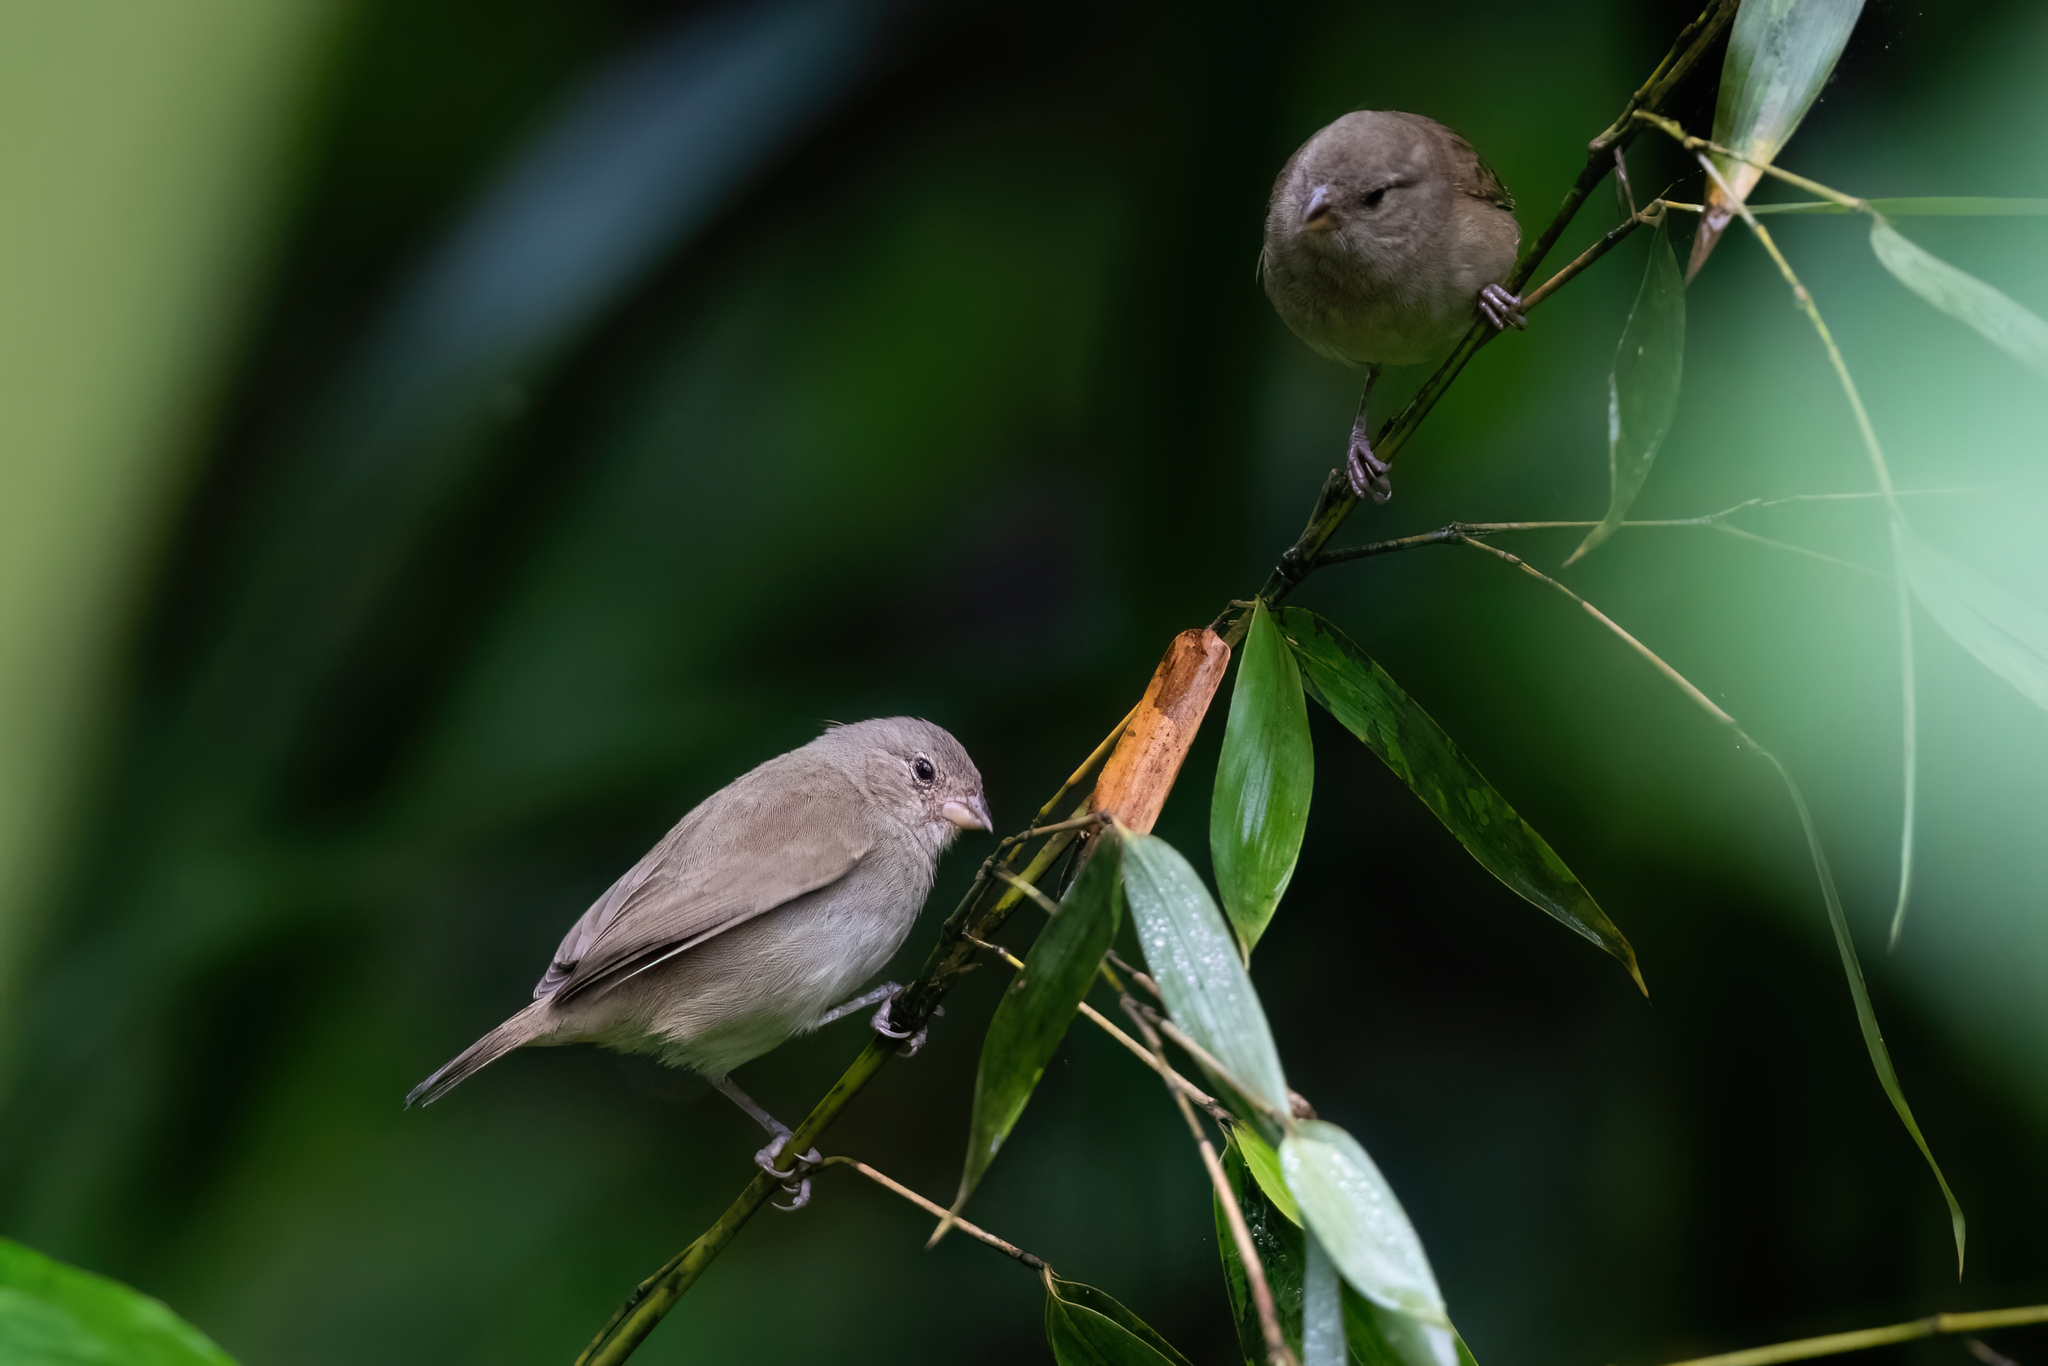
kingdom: Animalia
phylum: Chordata
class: Aves
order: Passeriformes
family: Thraupidae
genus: Asemospiza
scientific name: Asemospiza obscura
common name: Dull-colored grassquit
